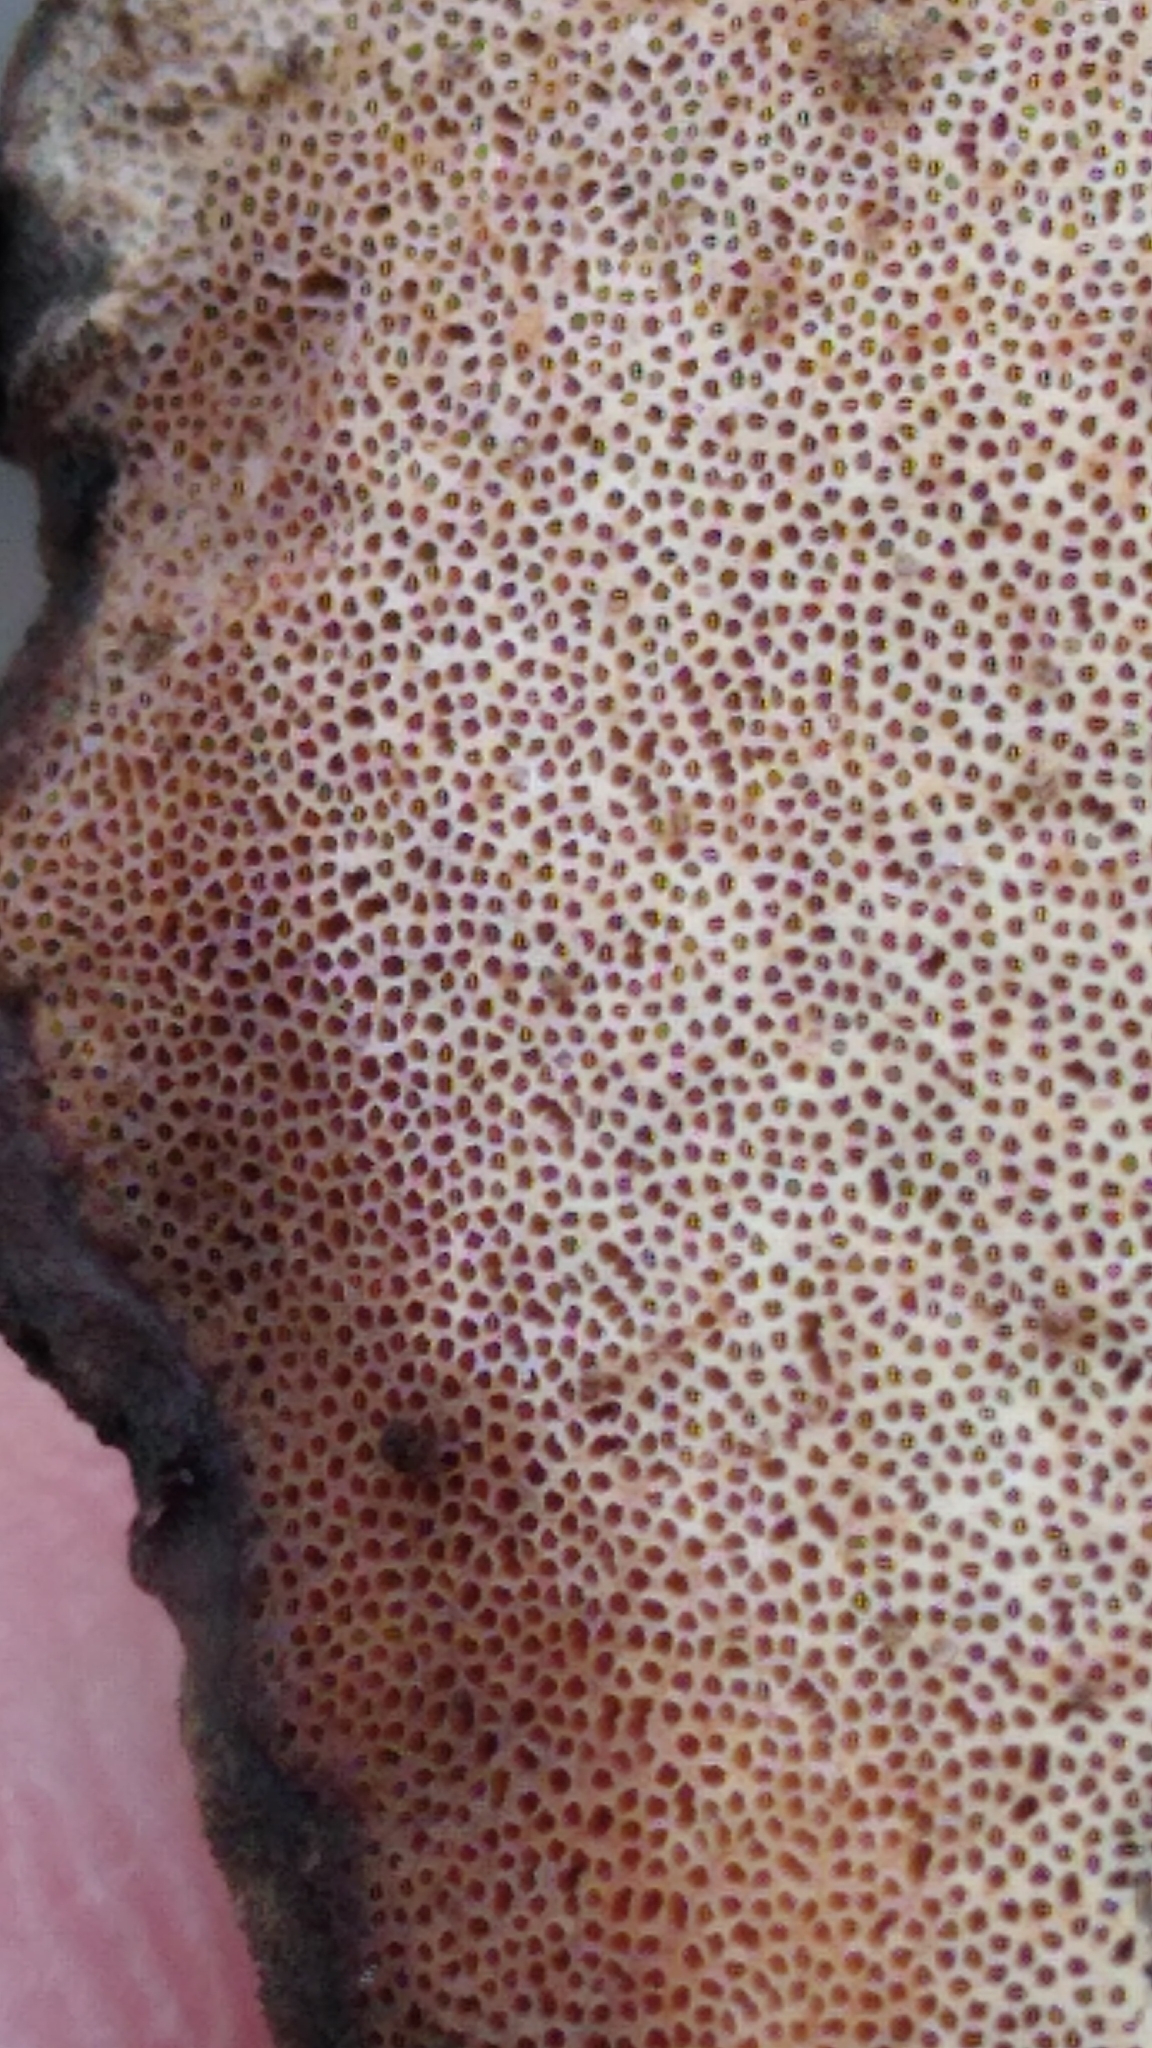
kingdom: Fungi
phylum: Basidiomycota
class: Agaricomycetes
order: Polyporales
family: Polyporaceae
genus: Vanderbylia
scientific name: Vanderbylia fraxinea
